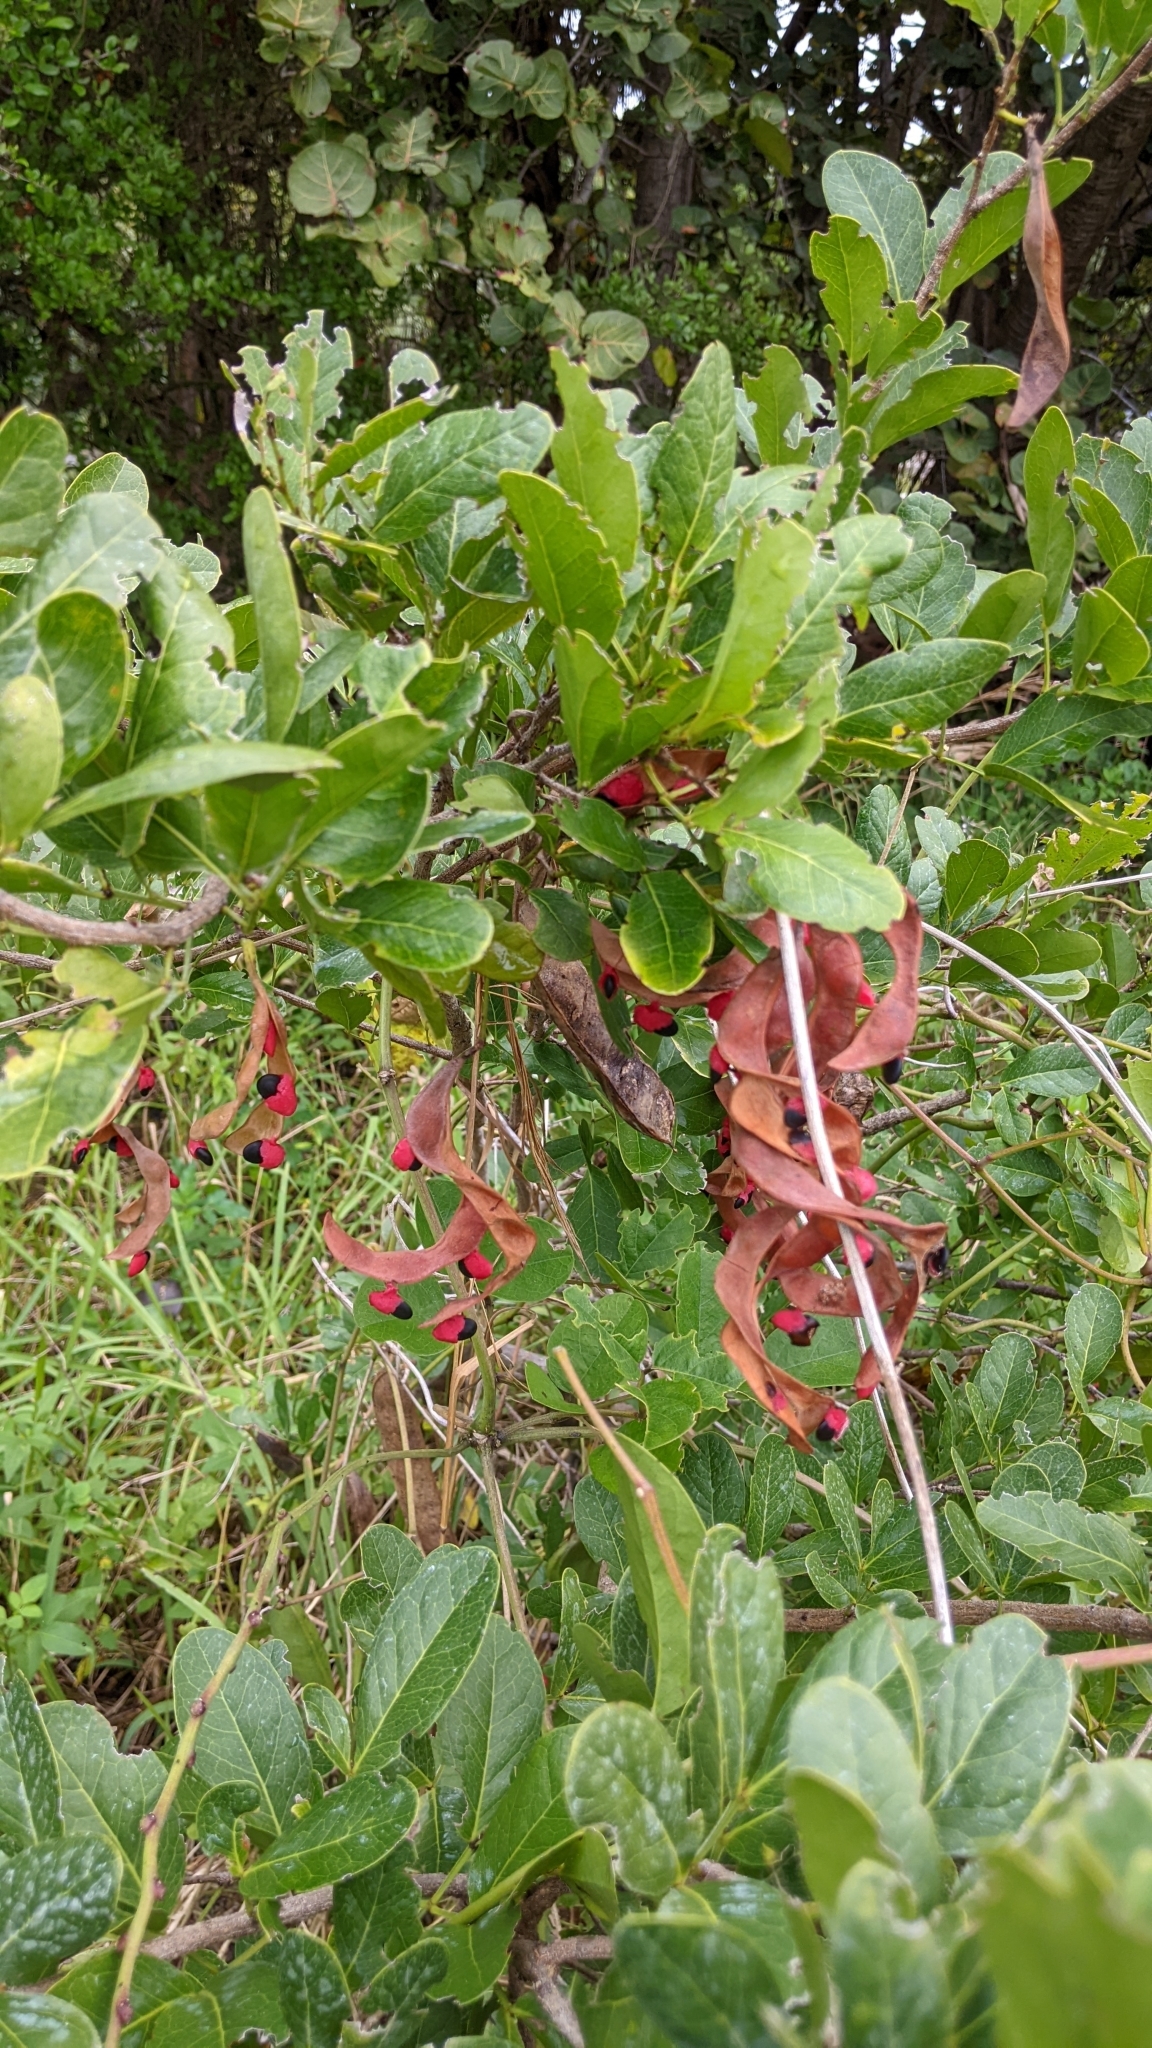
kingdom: Plantae
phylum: Tracheophyta
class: Magnoliopsida
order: Fabales
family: Fabaceae
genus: Pithecellobium
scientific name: Pithecellobium keyense
